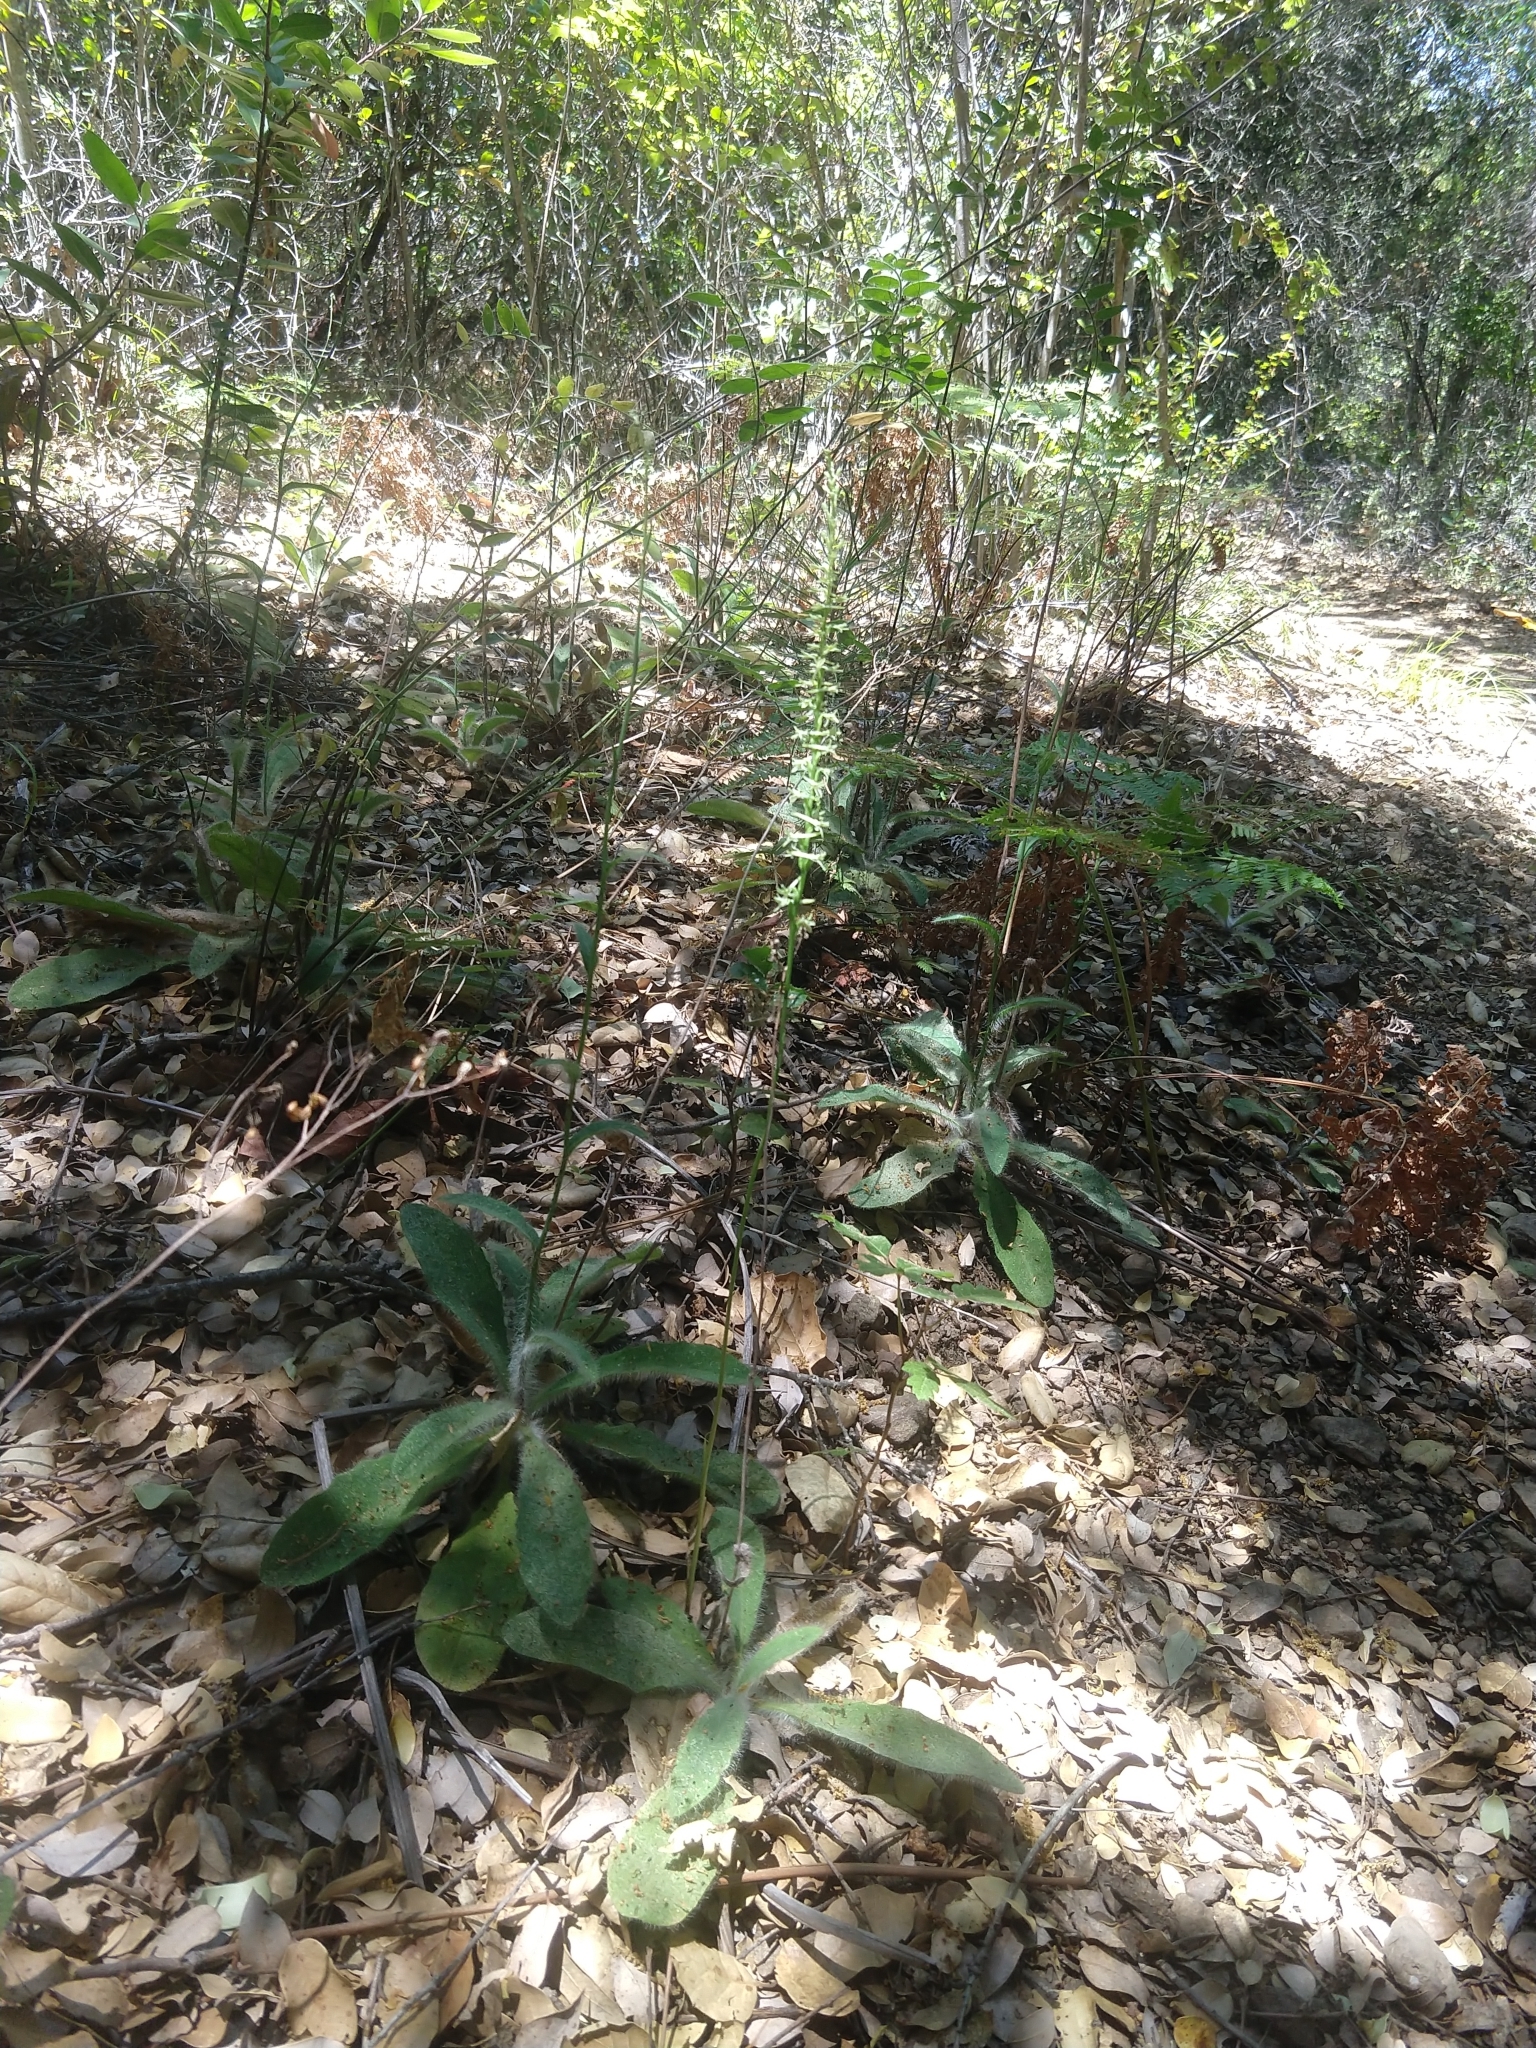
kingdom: Plantae
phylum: Tracheophyta
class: Liliopsida
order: Asparagales
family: Orchidaceae
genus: Platanthera
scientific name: Platanthera transversa
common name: Royal rein orchid
